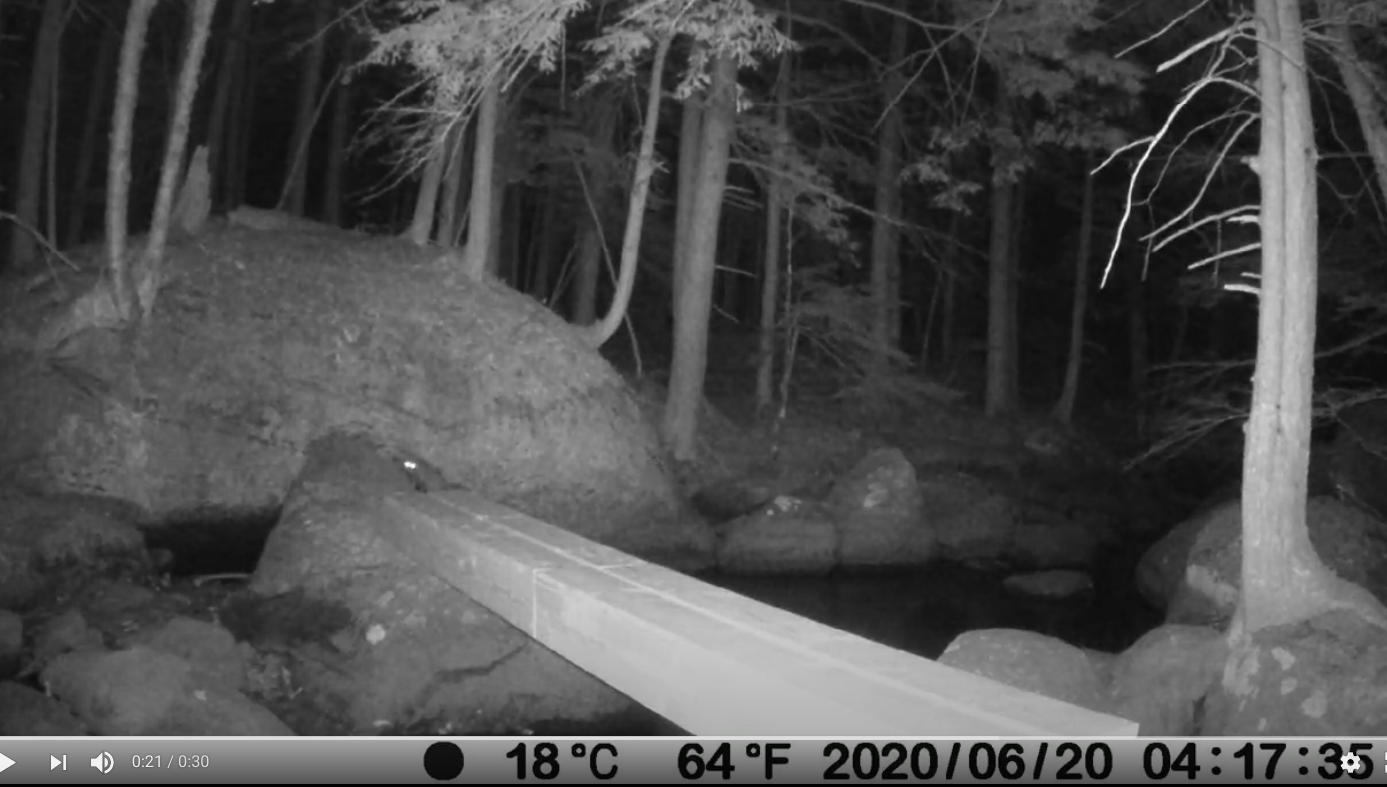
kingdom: Animalia
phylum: Chordata
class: Mammalia
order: Carnivora
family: Procyonidae
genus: Procyon
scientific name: Procyon lotor
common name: Raccoon
